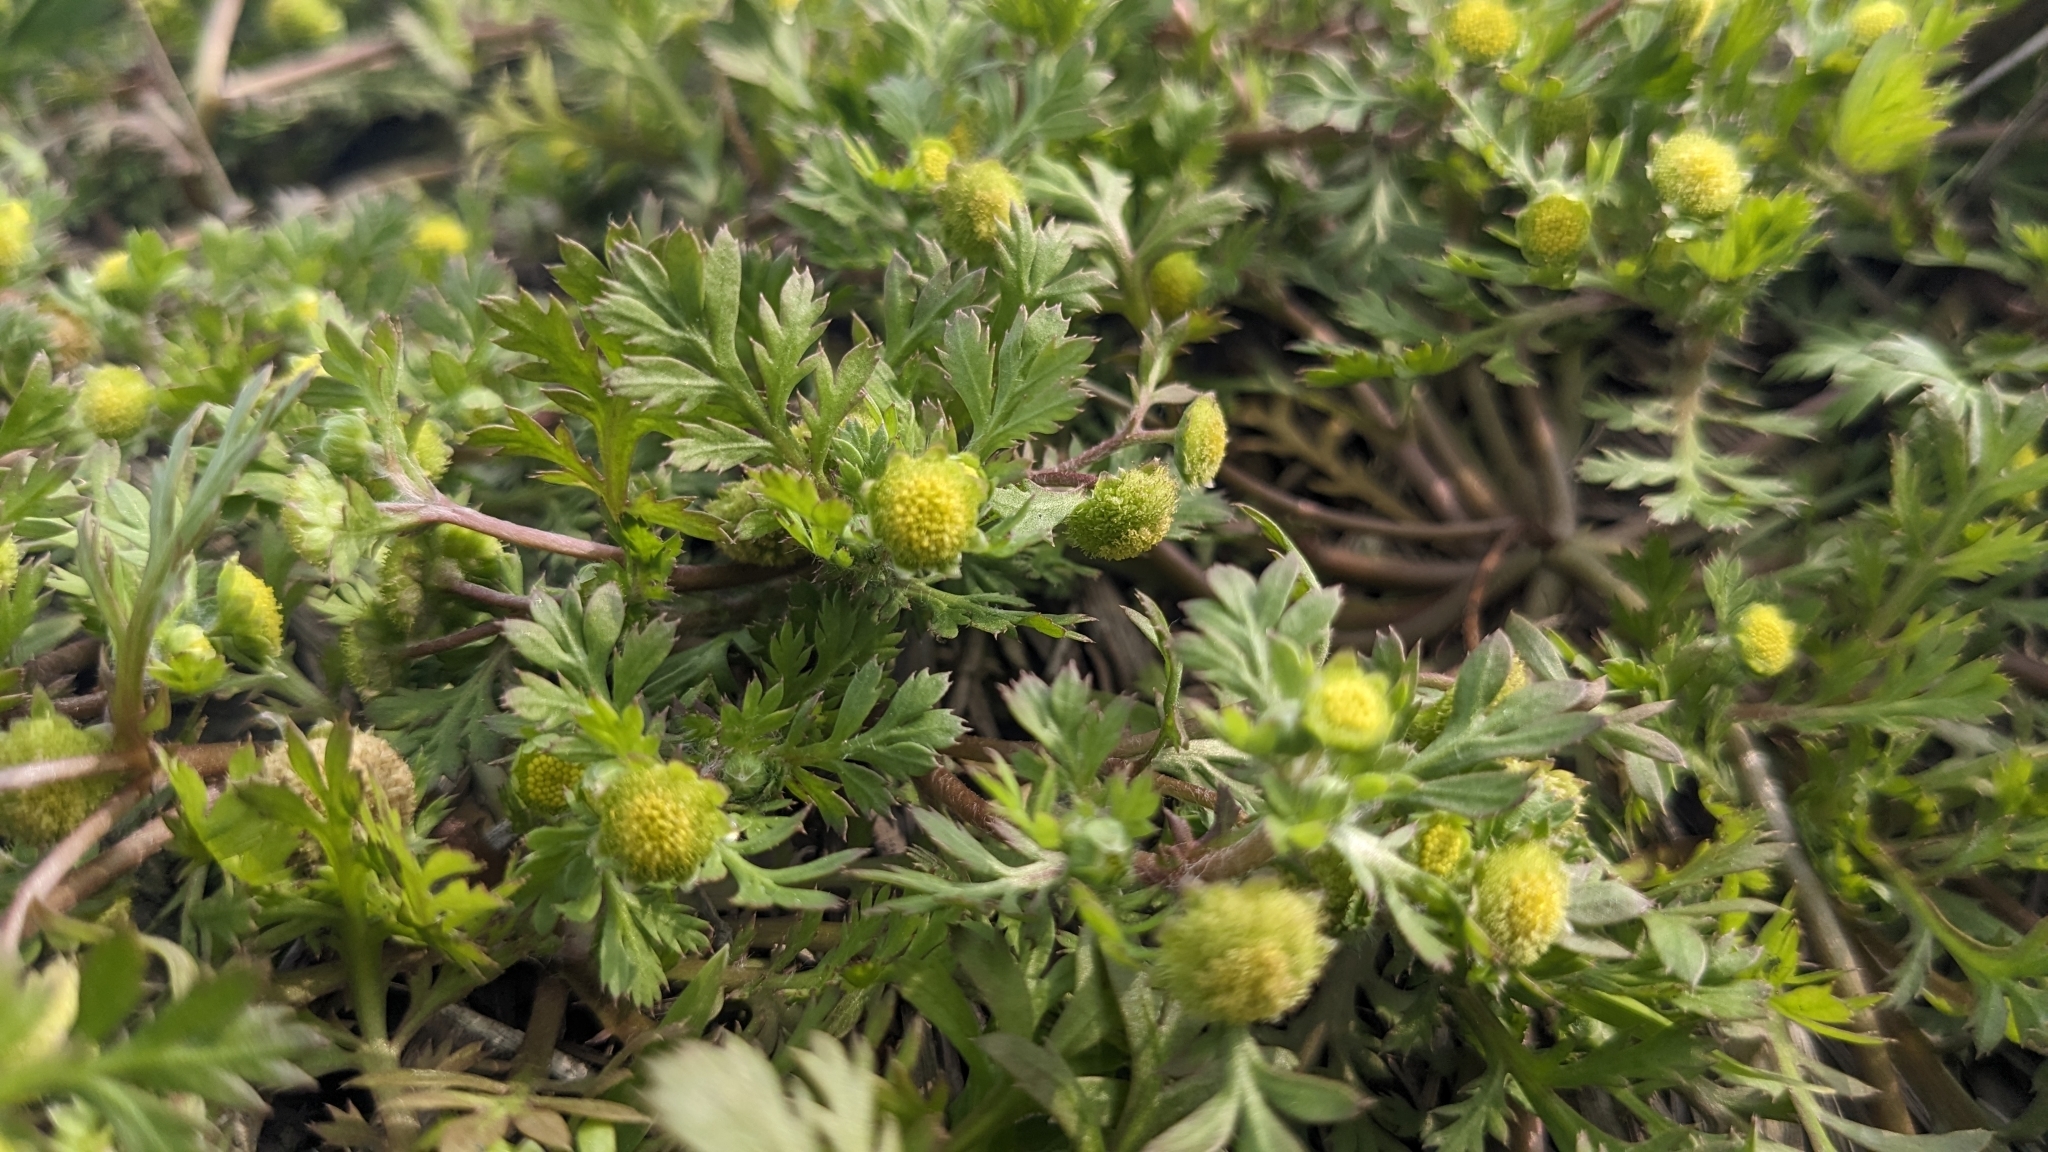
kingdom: Plantae
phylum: Tracheophyta
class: Magnoliopsida
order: Asterales
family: Asteraceae
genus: Cotula
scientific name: Cotula hemisphaerica
